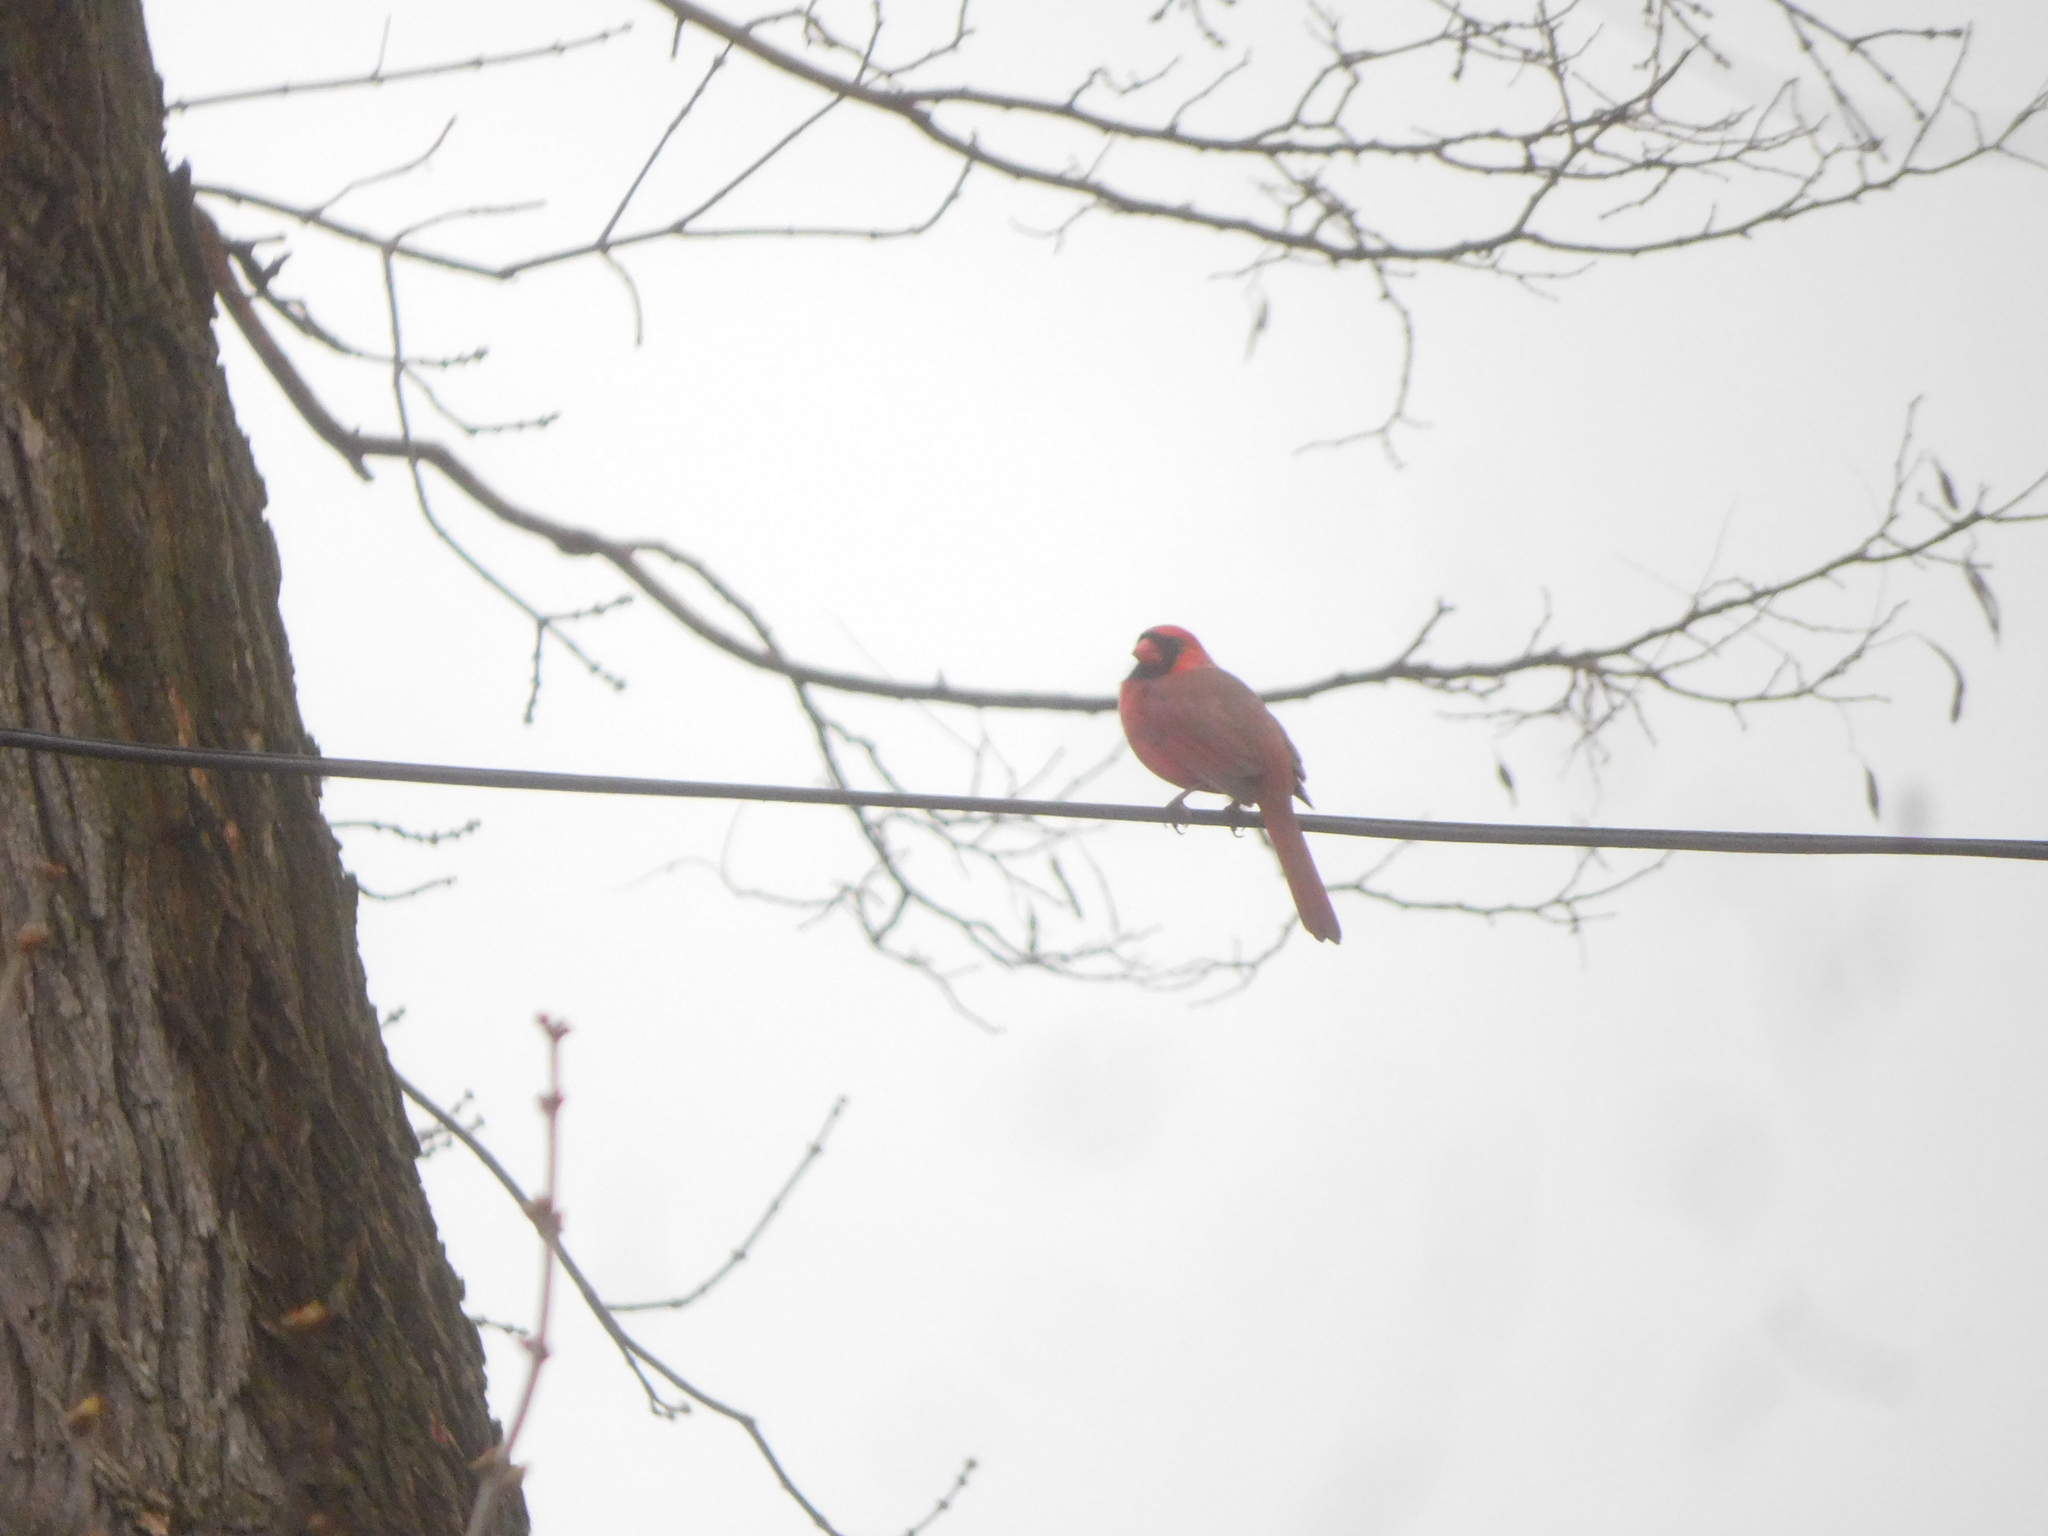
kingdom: Animalia
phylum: Chordata
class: Aves
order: Passeriformes
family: Cardinalidae
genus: Cardinalis
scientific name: Cardinalis cardinalis
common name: Northern cardinal
